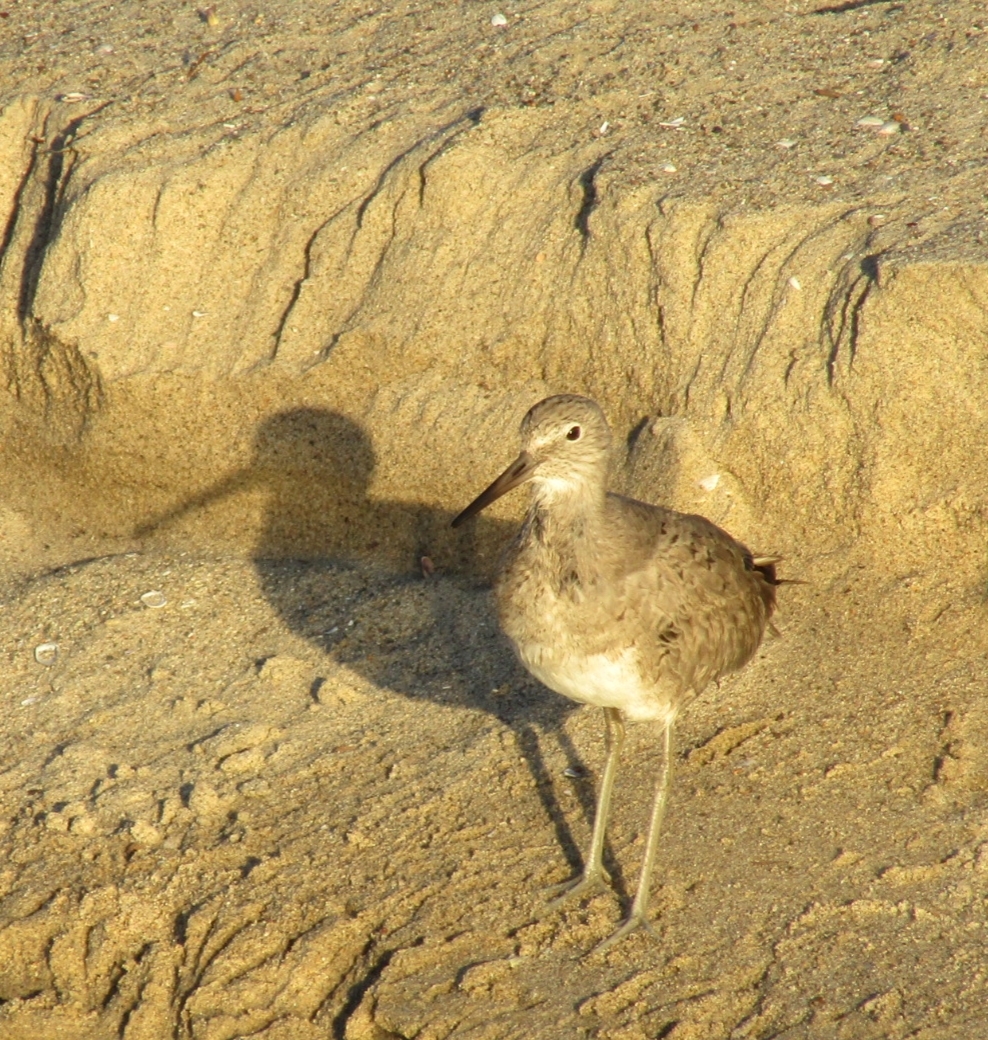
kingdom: Animalia
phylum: Chordata
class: Aves
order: Charadriiformes
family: Scolopacidae
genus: Tringa
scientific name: Tringa semipalmata
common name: Willet
